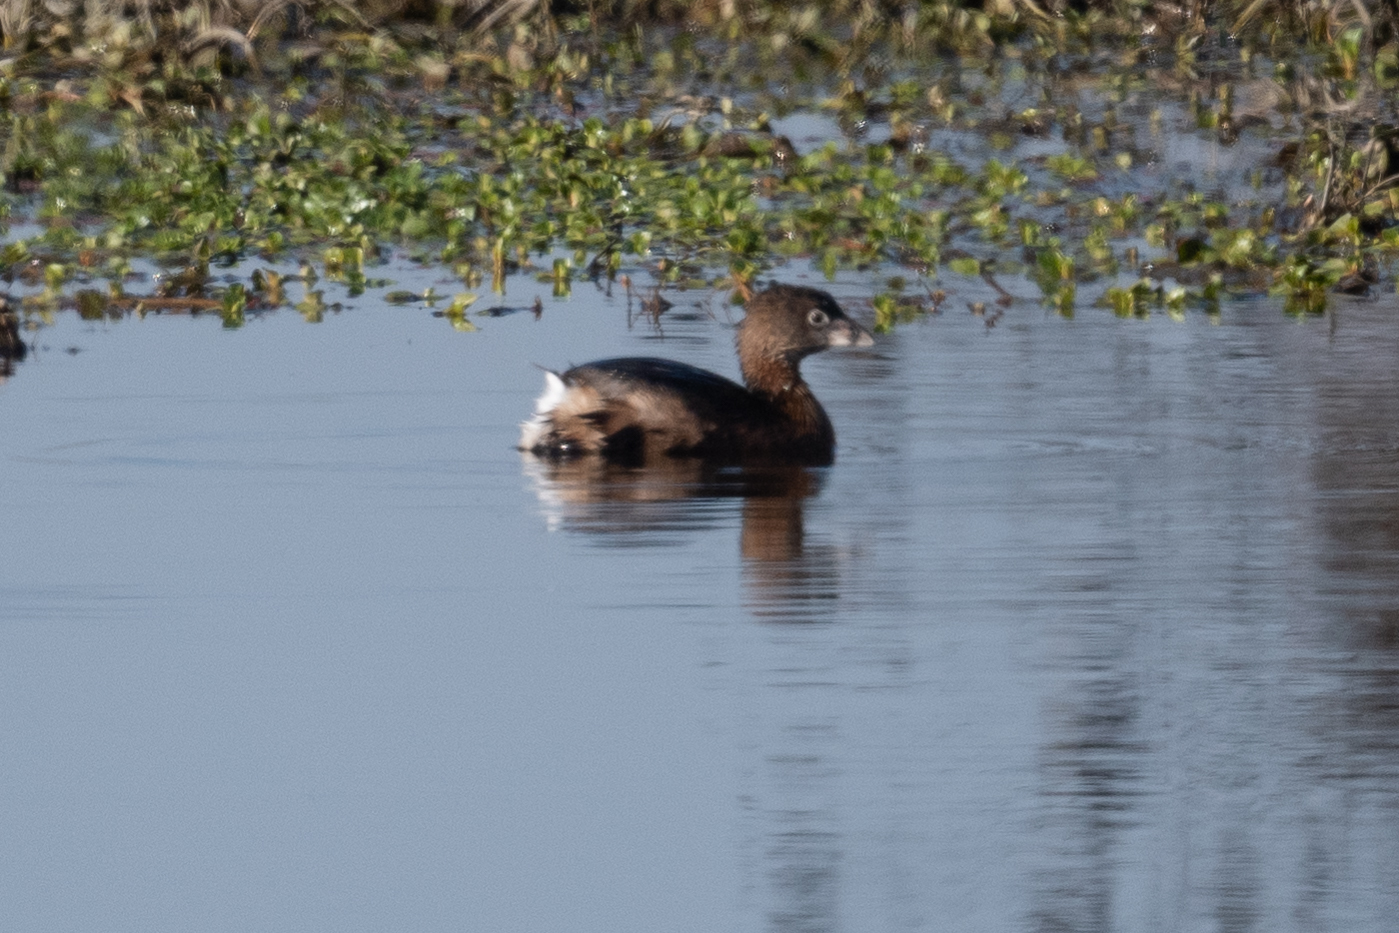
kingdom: Animalia
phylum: Chordata
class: Aves
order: Podicipediformes
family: Podicipedidae
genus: Podilymbus
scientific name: Podilymbus podiceps
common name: Pied-billed grebe
